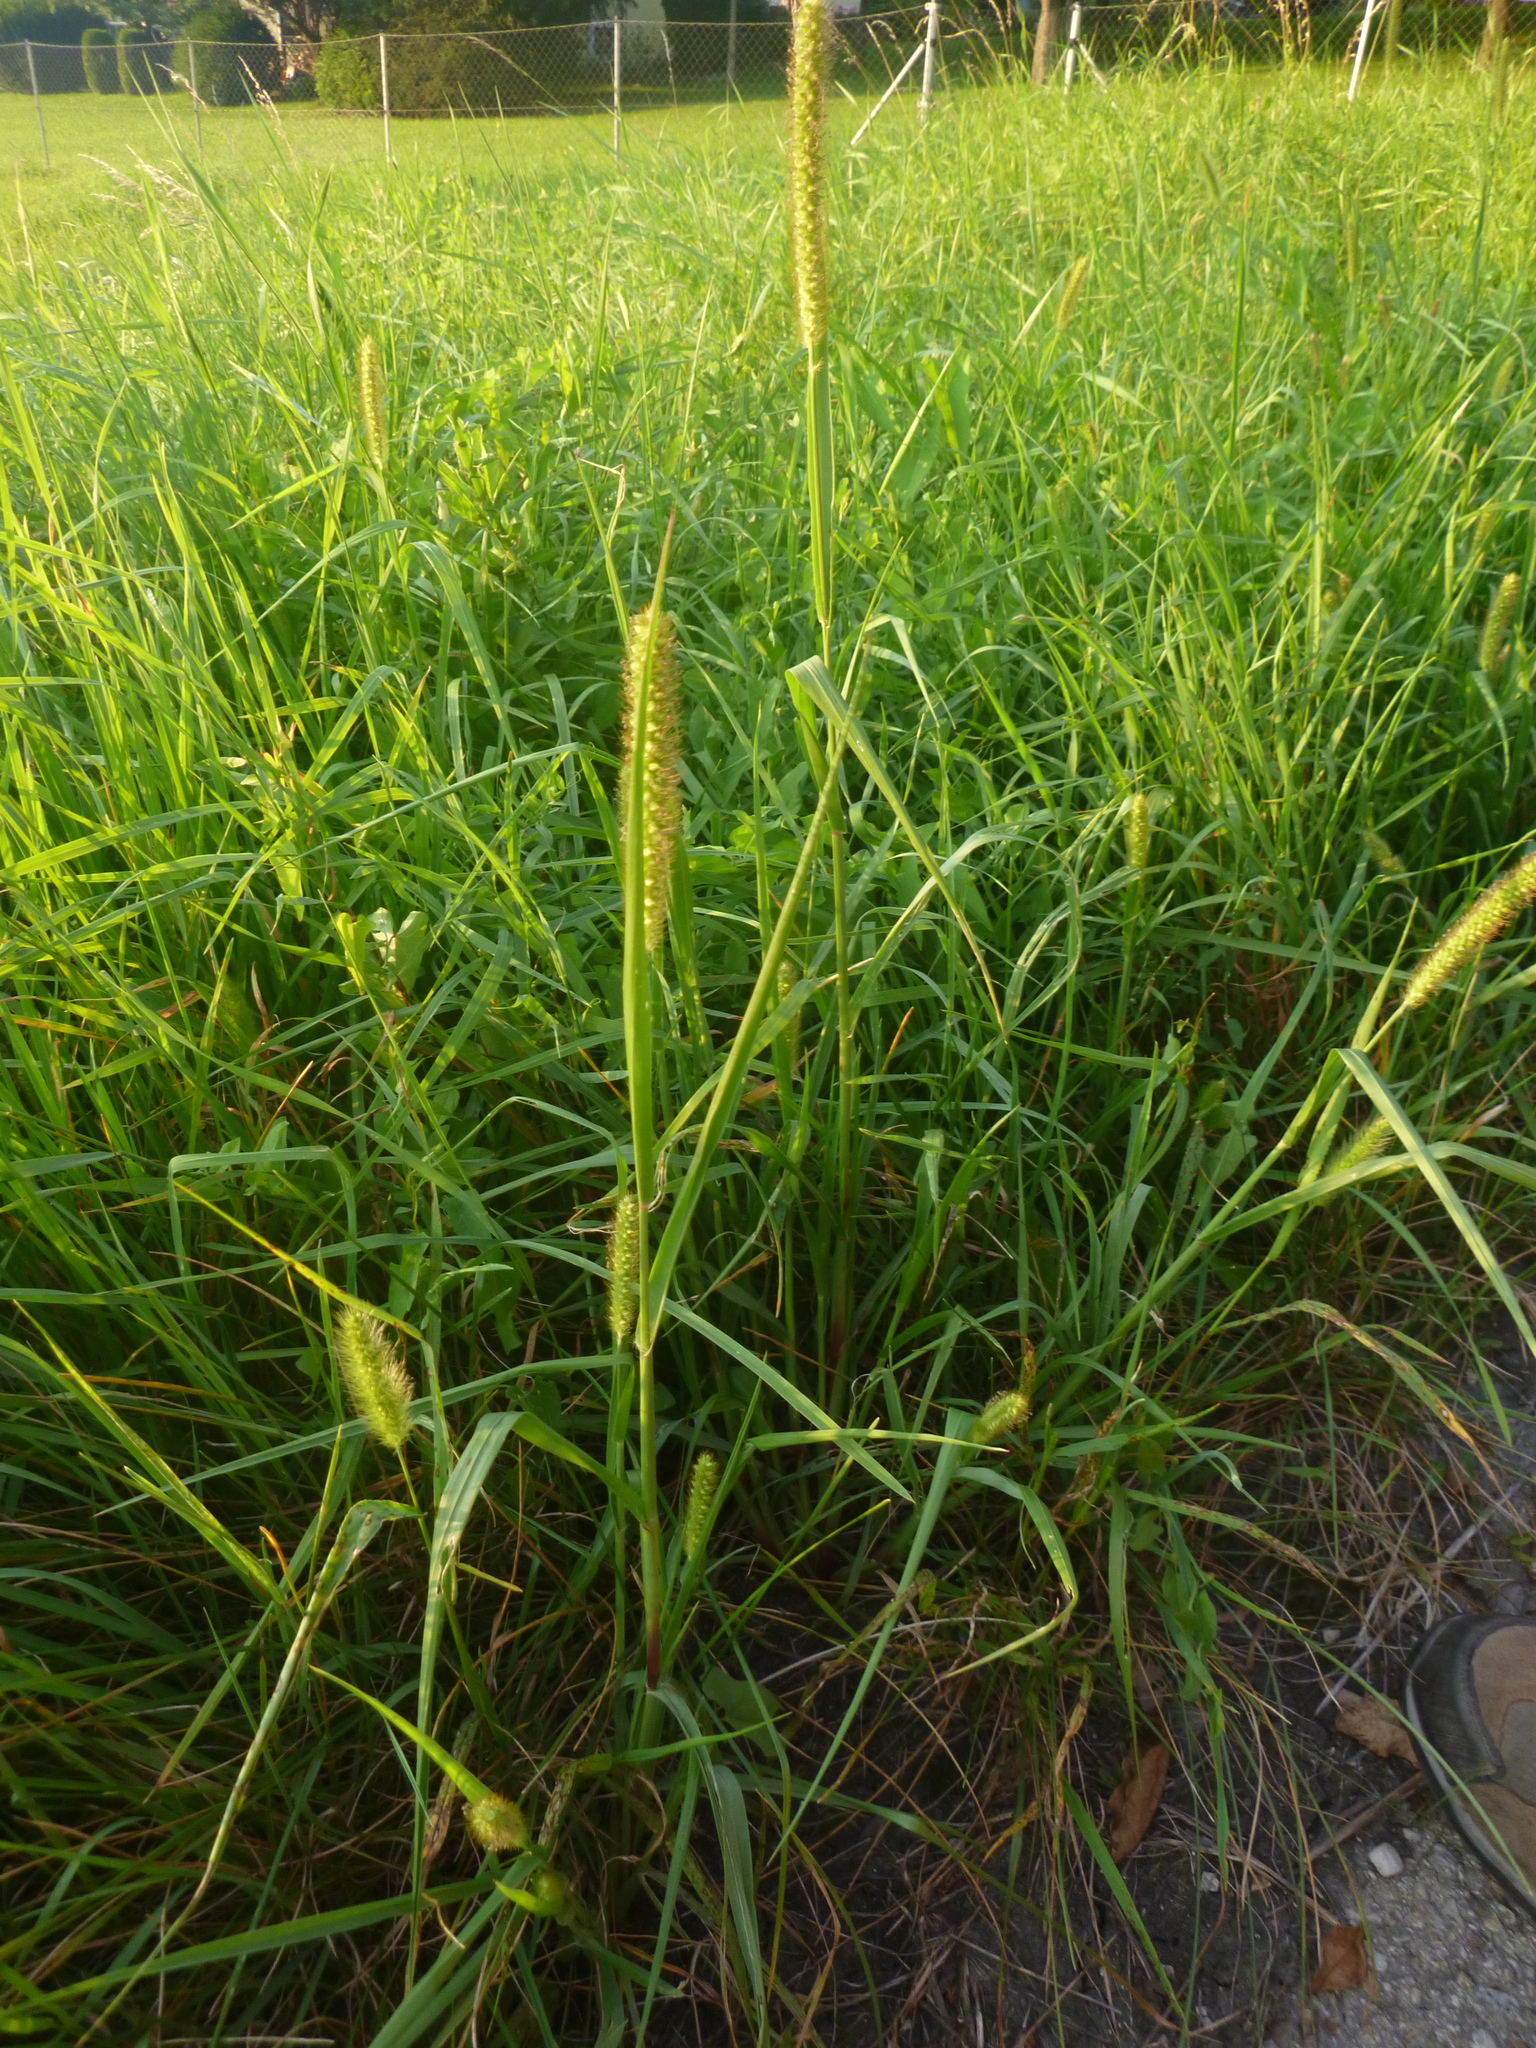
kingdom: Plantae
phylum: Tracheophyta
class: Liliopsida
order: Poales
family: Poaceae
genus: Setaria
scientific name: Setaria pumila
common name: Yellow bristle-grass
